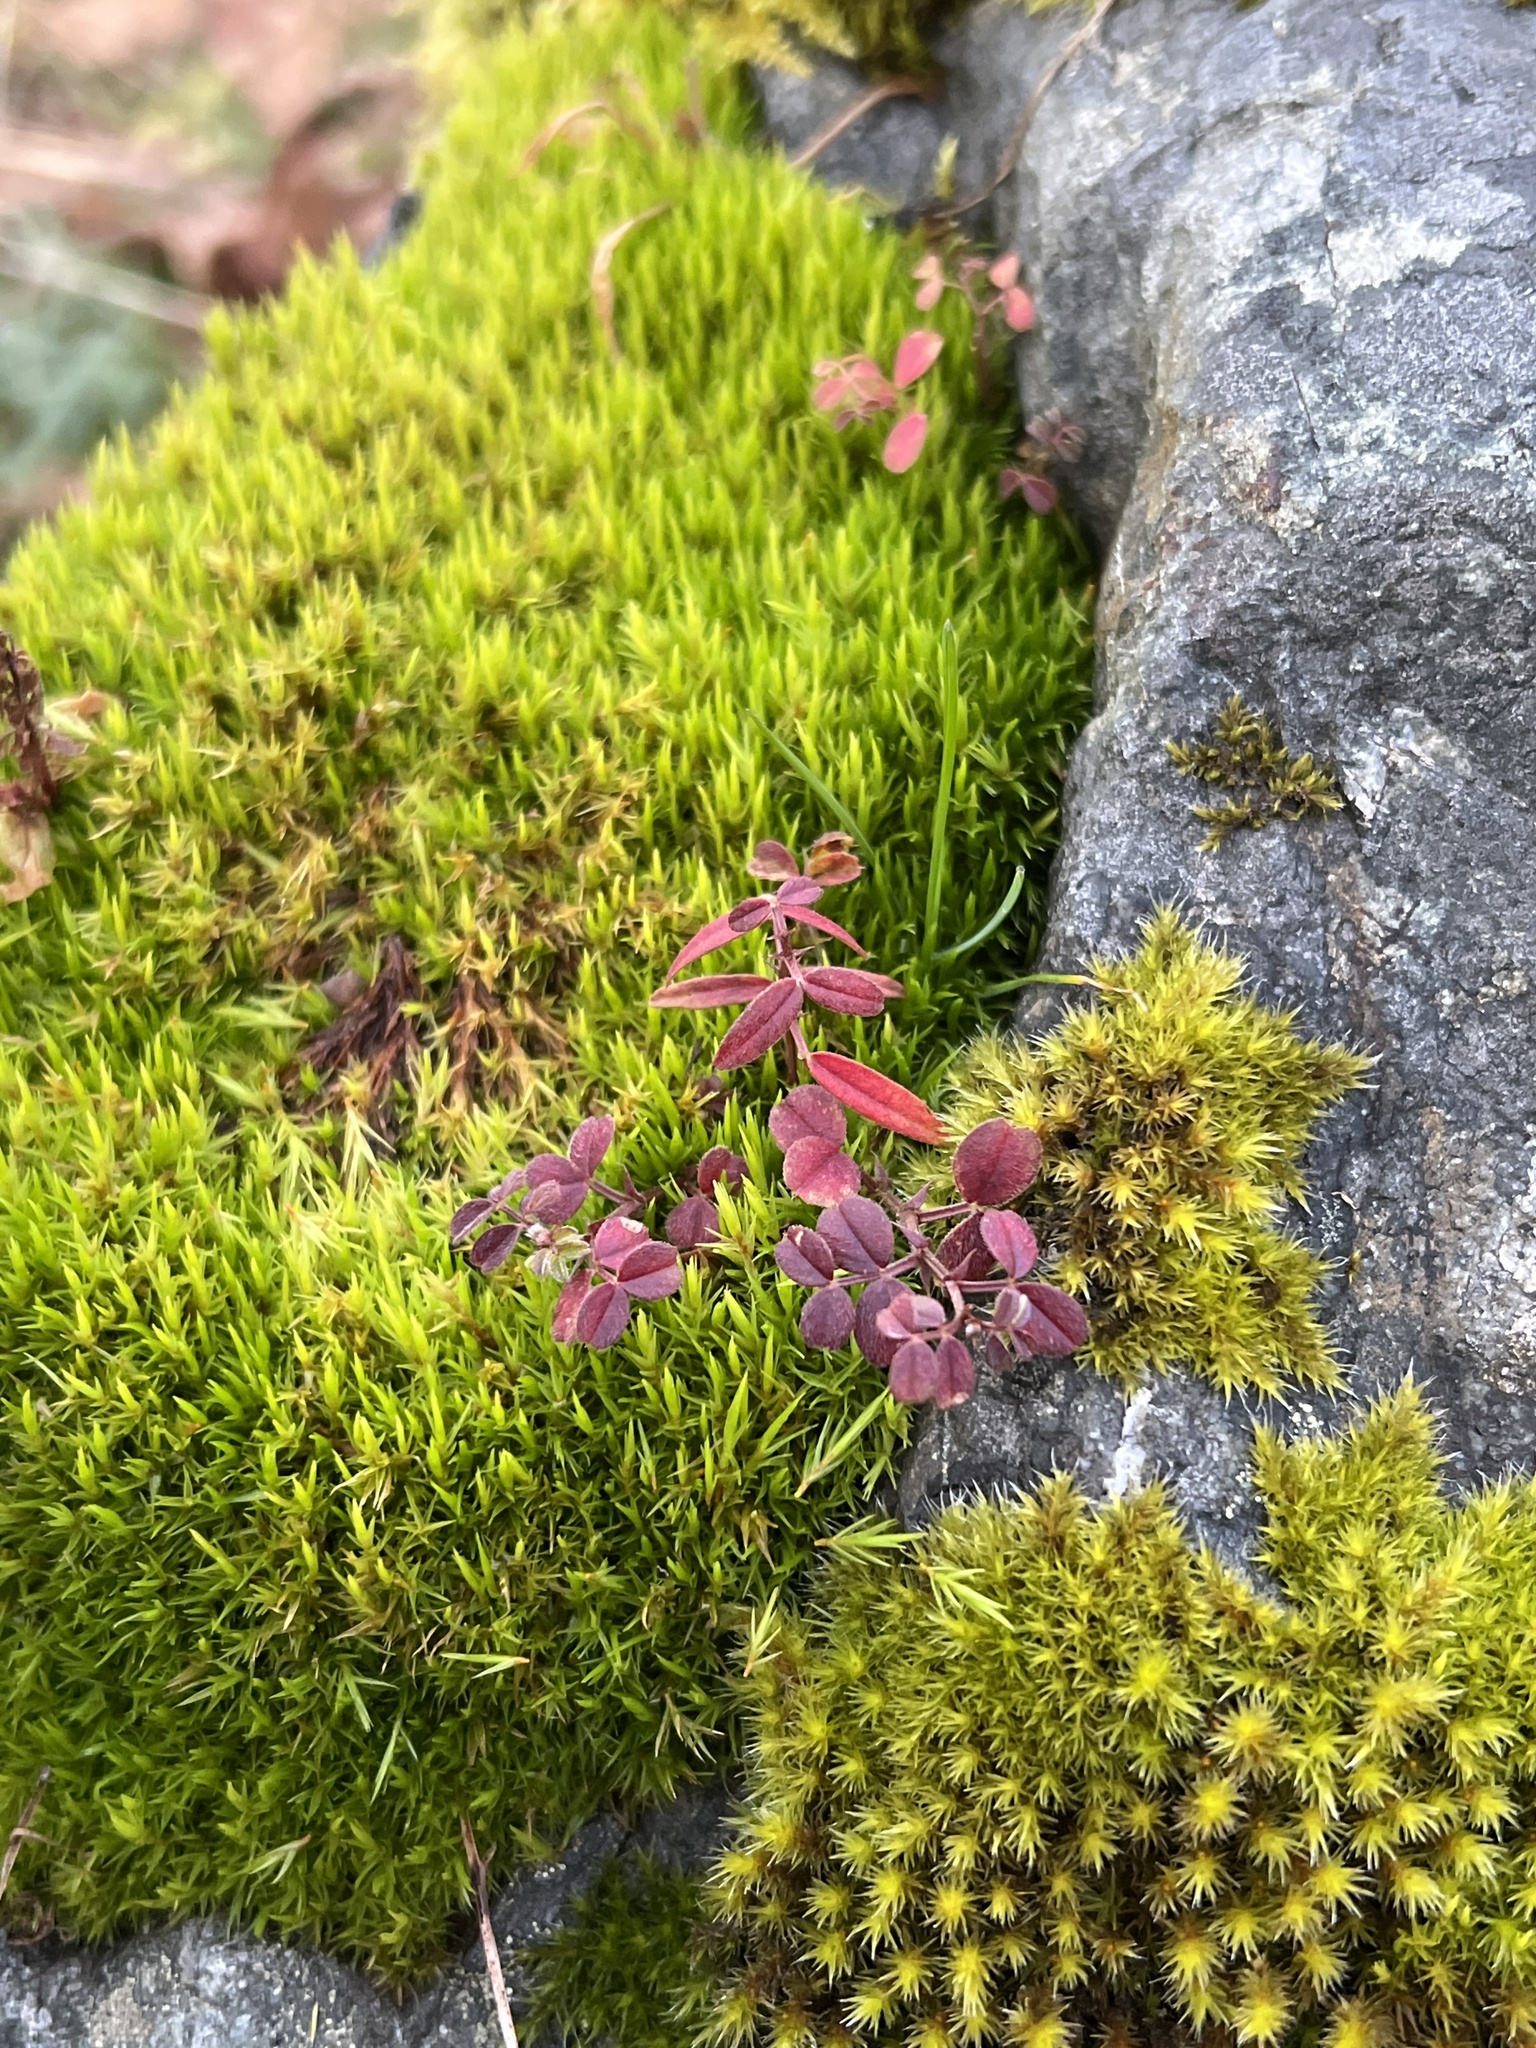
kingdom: Plantae
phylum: Tracheophyta
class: Magnoliopsida
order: Fabales
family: Fabaceae
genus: Vicia
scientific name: Vicia lathyroides
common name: Spring vetch
